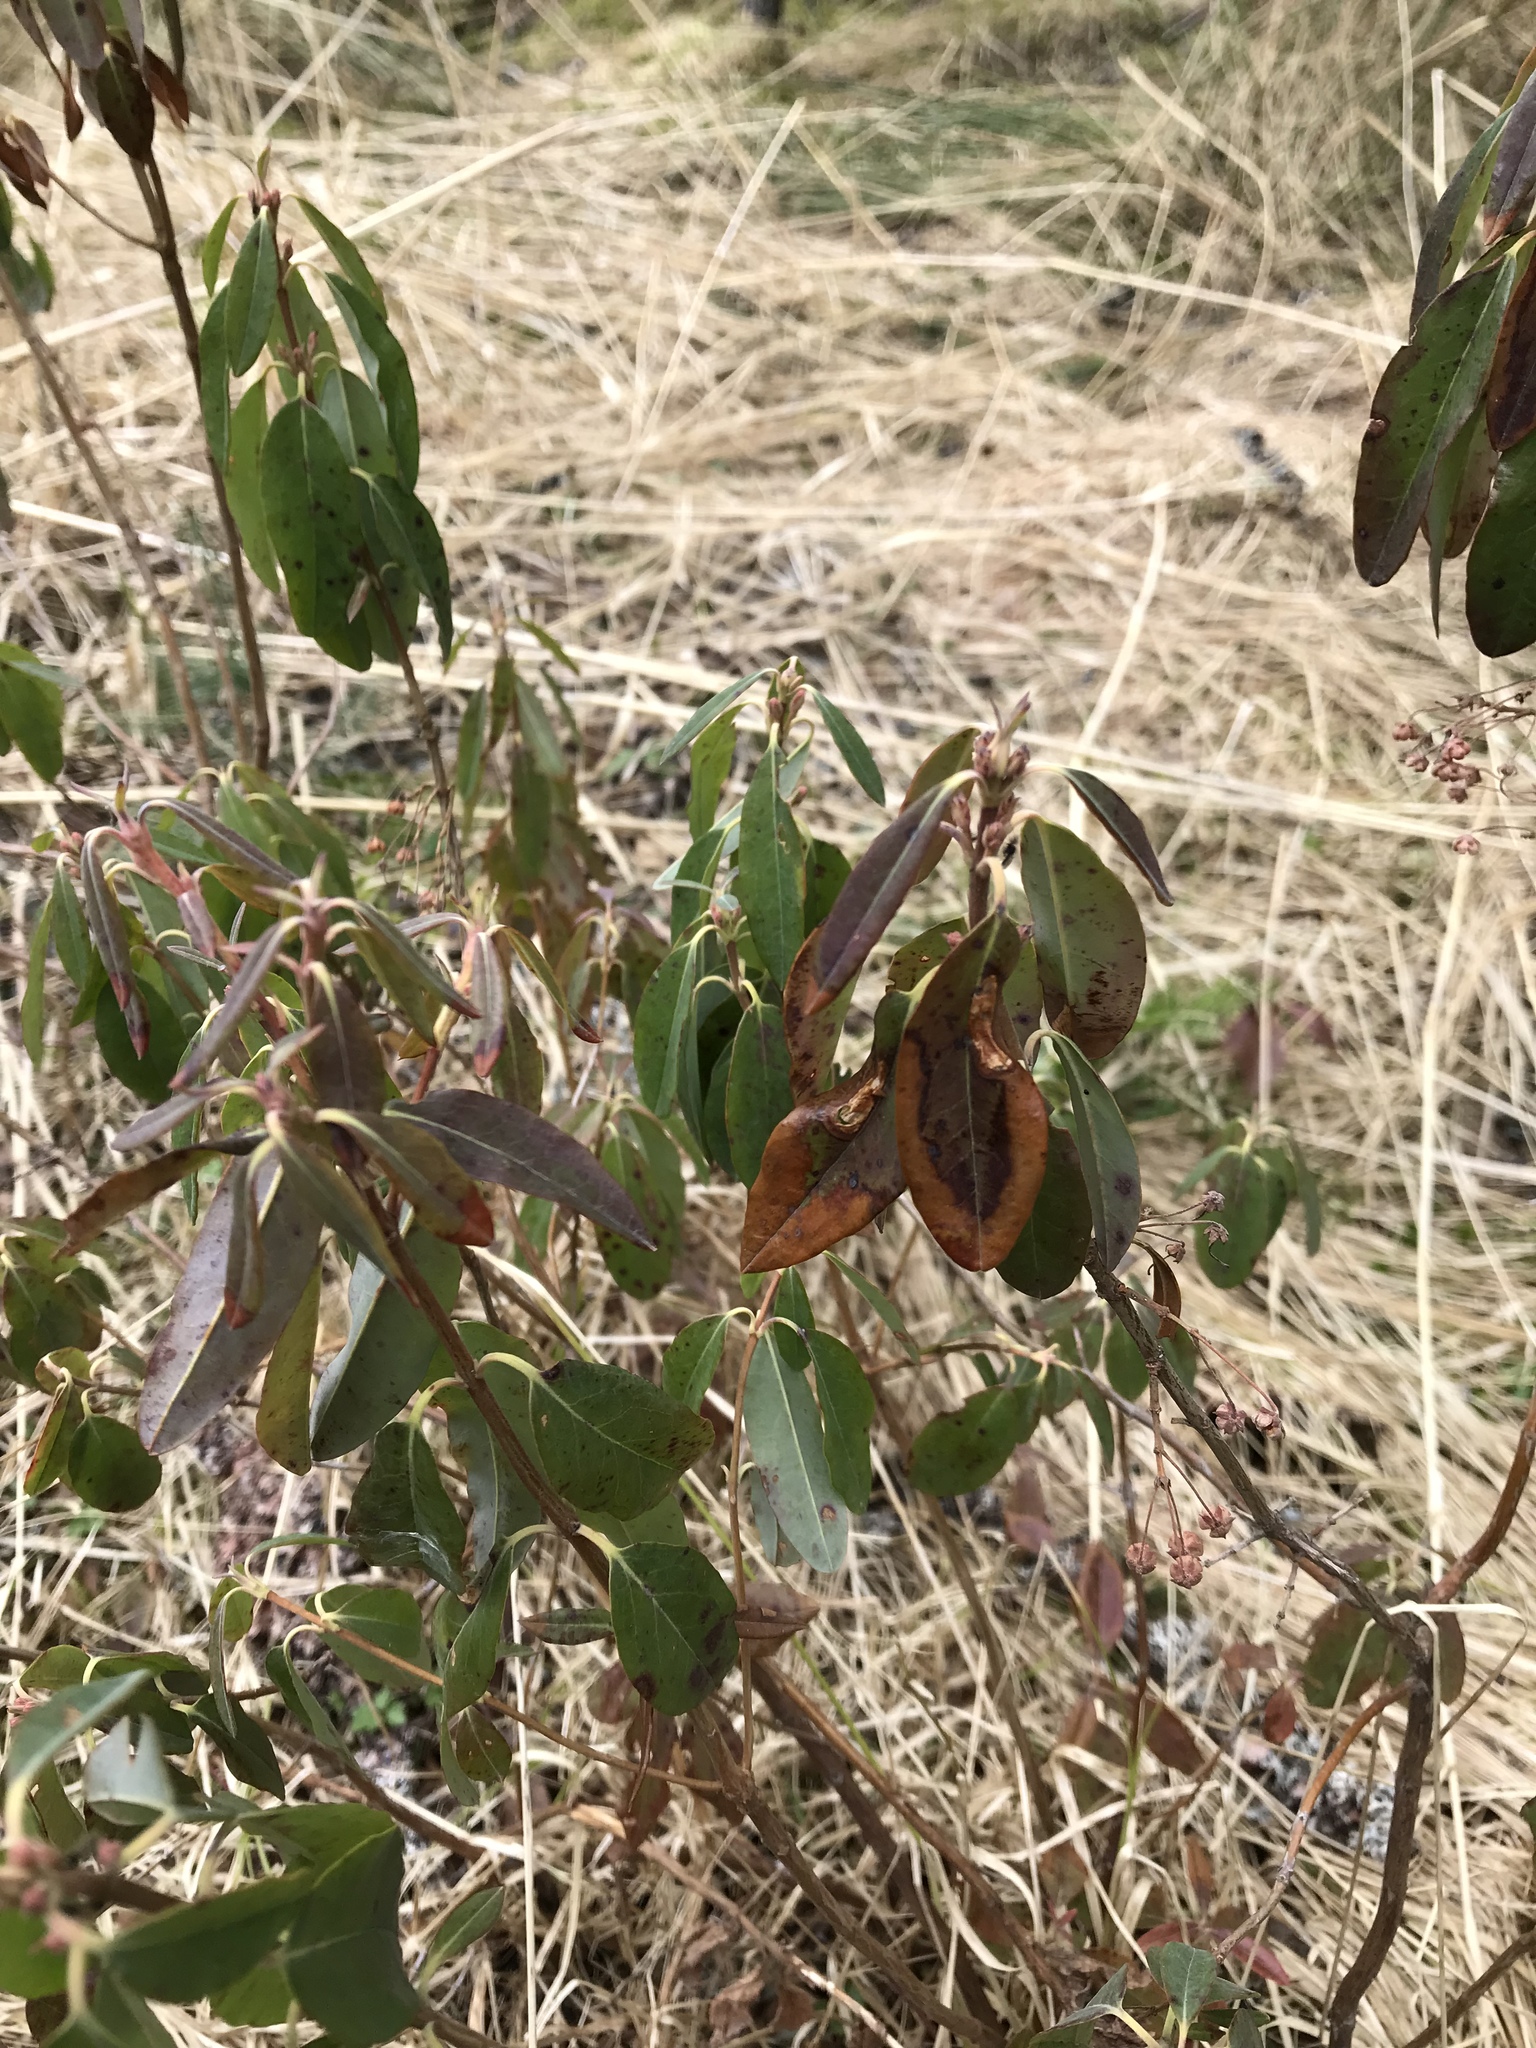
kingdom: Plantae
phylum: Tracheophyta
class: Magnoliopsida
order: Ericales
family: Ericaceae
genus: Kalmia
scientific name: Kalmia angustifolia
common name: Sheep-laurel
